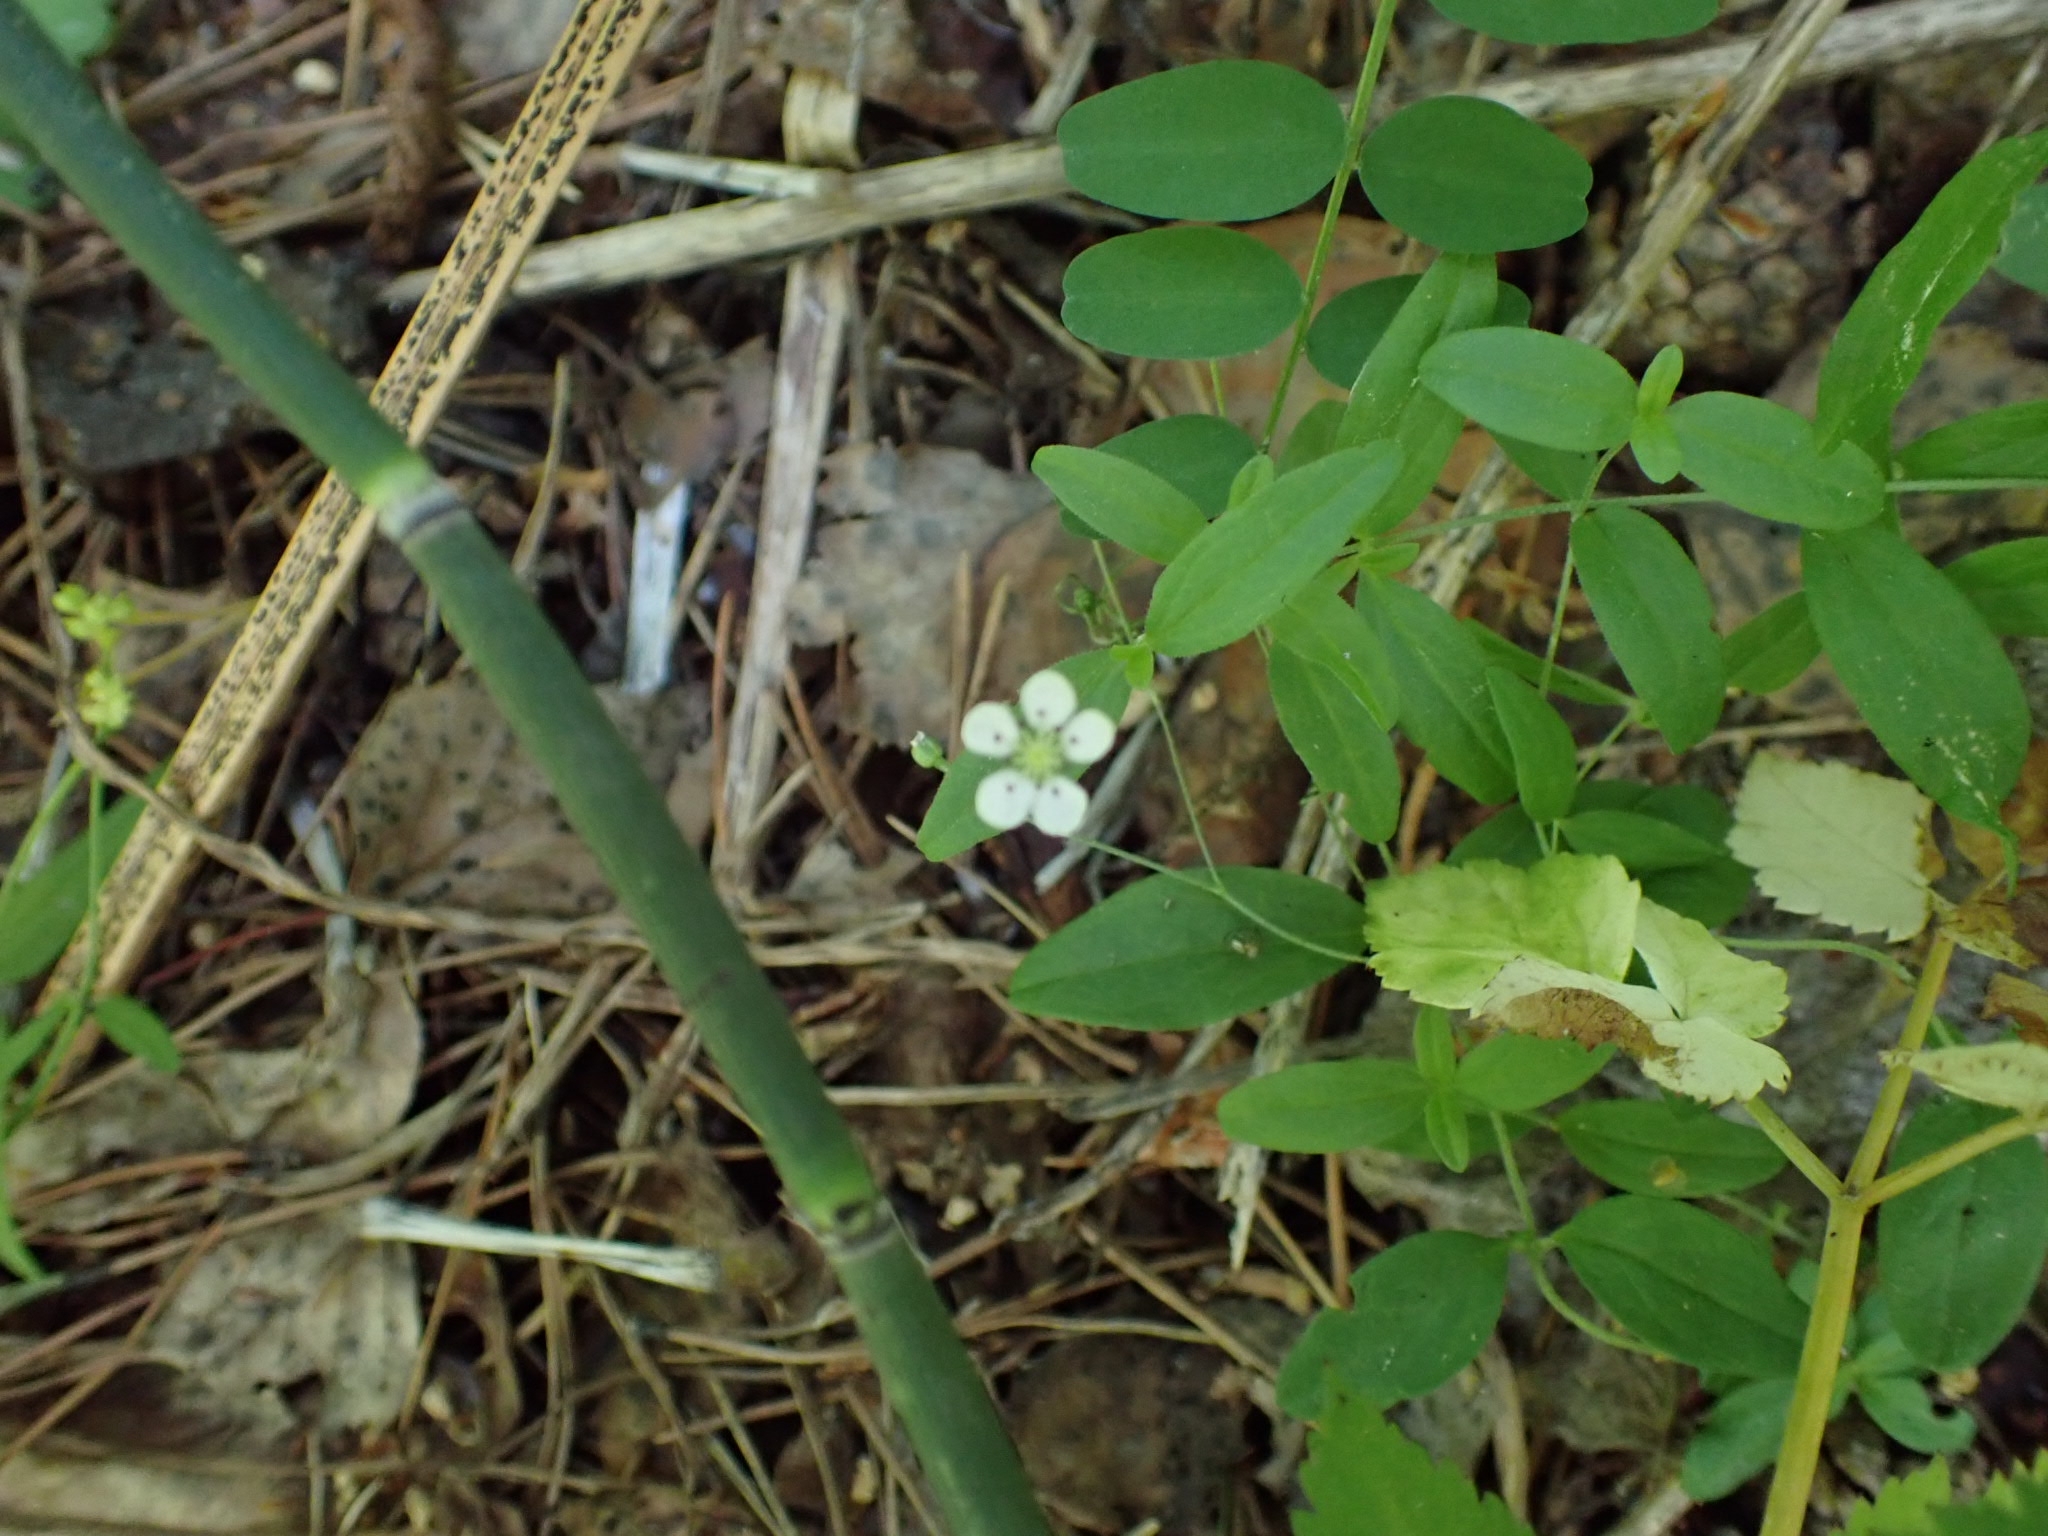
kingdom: Plantae
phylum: Tracheophyta
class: Magnoliopsida
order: Caryophyllales
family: Caryophyllaceae
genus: Moehringia
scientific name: Moehringia lateriflora
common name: Blunt-leaved sandwort
